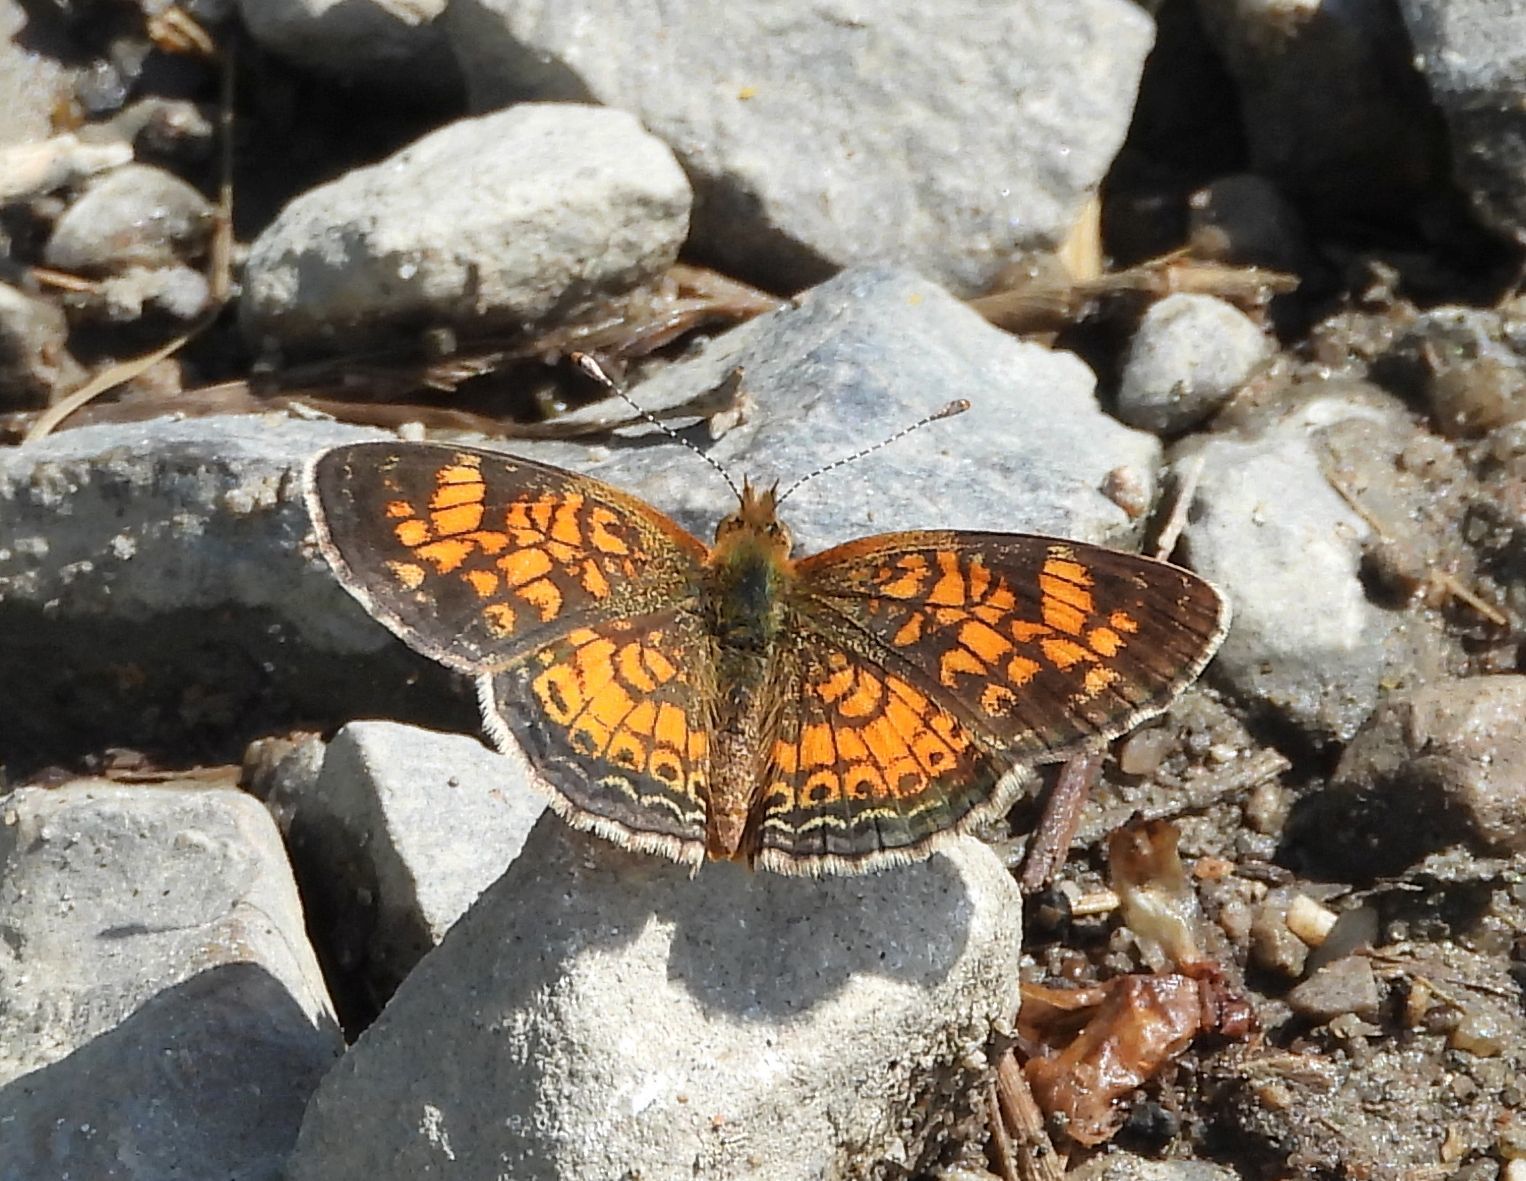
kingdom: Animalia
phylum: Arthropoda
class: Insecta
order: Lepidoptera
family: Nymphalidae
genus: Phyciodes
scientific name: Phyciodes tharos
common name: Pearl crescent
